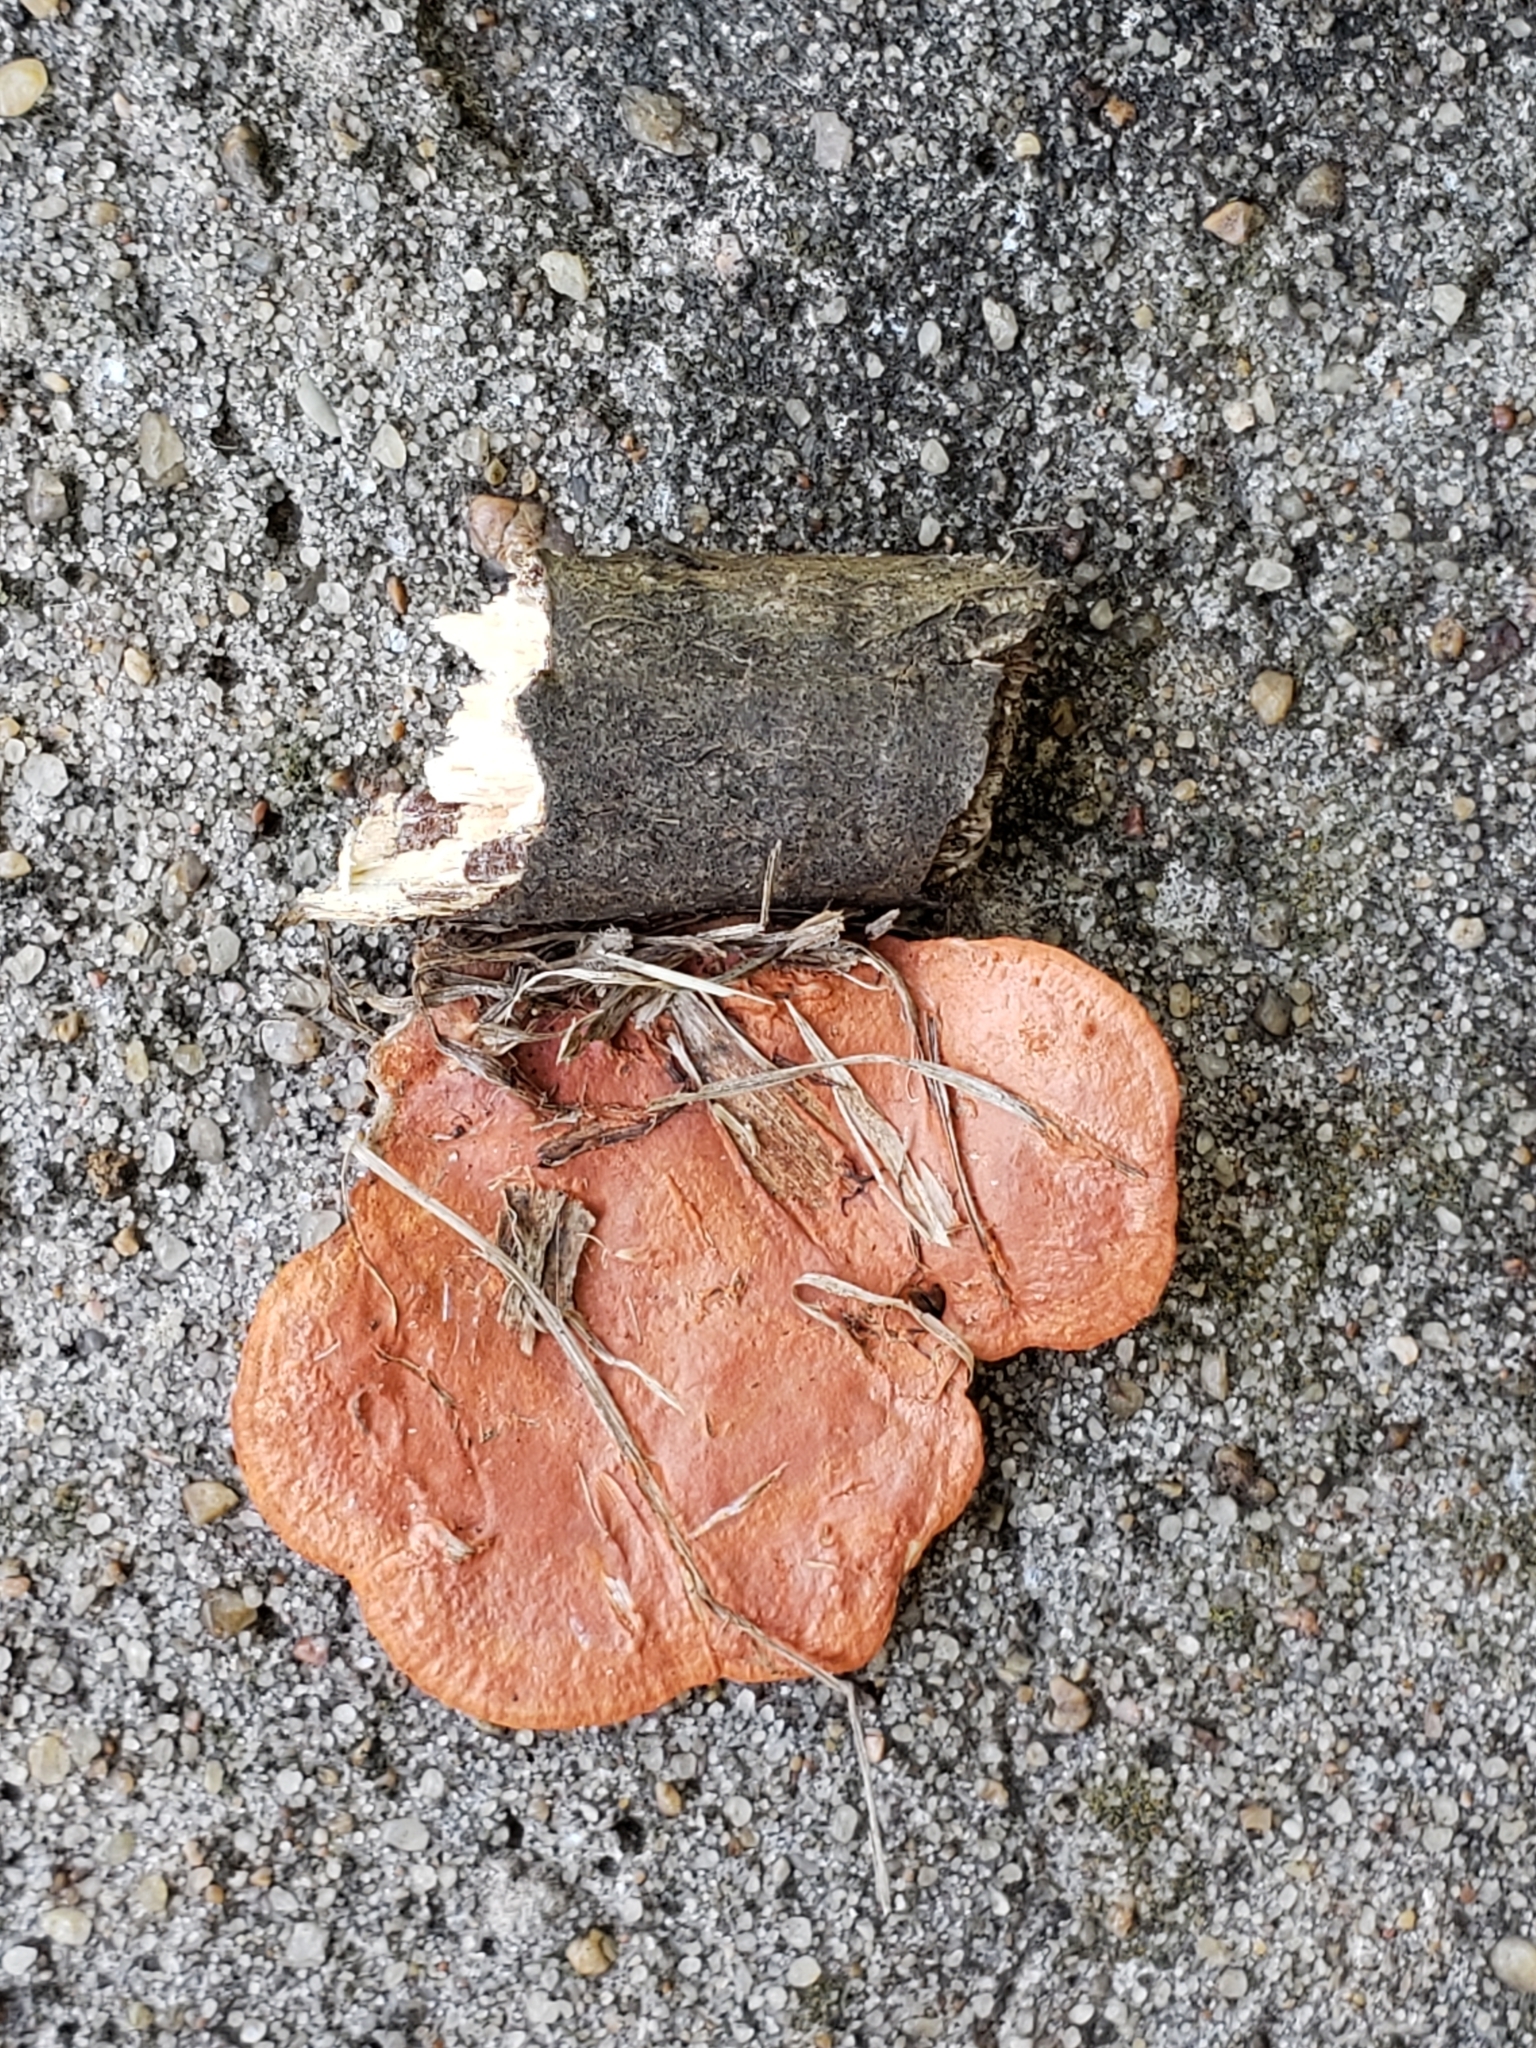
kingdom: Fungi
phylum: Basidiomycota
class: Agaricomycetes
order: Polyporales
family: Polyporaceae
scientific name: Polyporaceae
